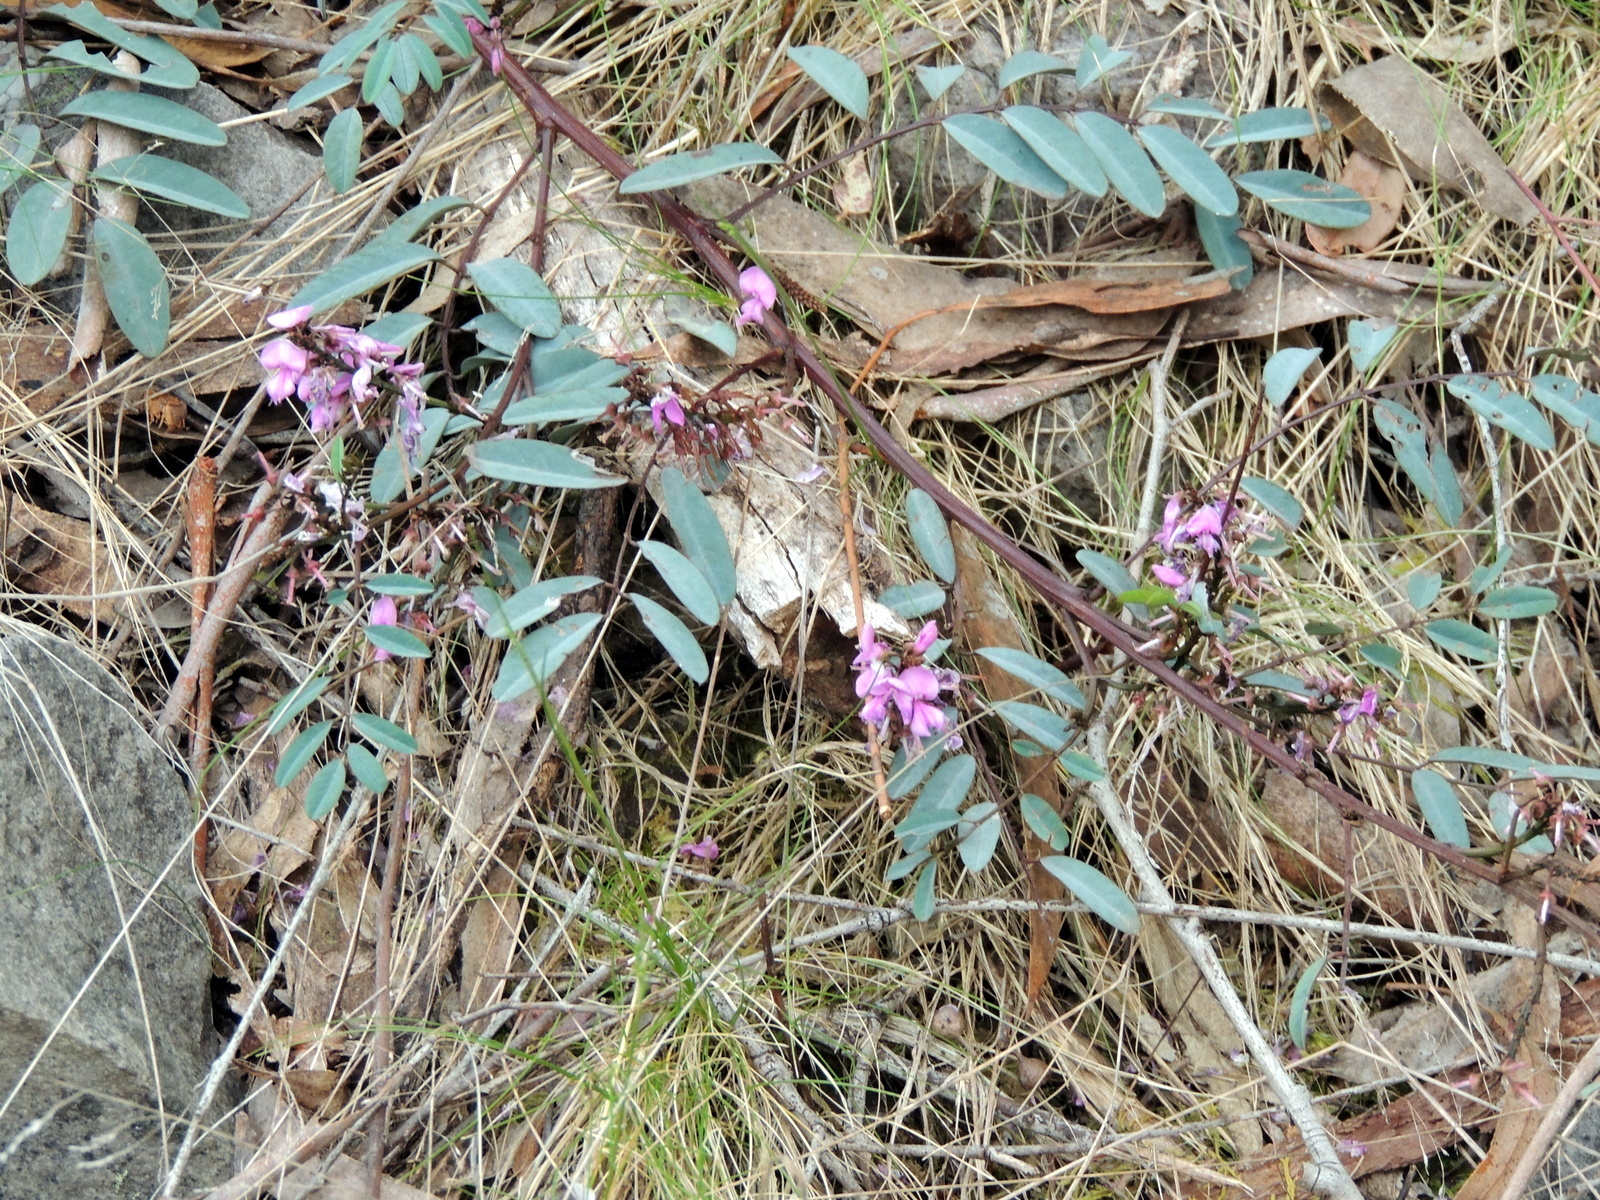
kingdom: Plantae
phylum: Tracheophyta
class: Magnoliopsida
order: Fabales
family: Fabaceae
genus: Indigofera
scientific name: Indigofera australis
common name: Australian indigo
